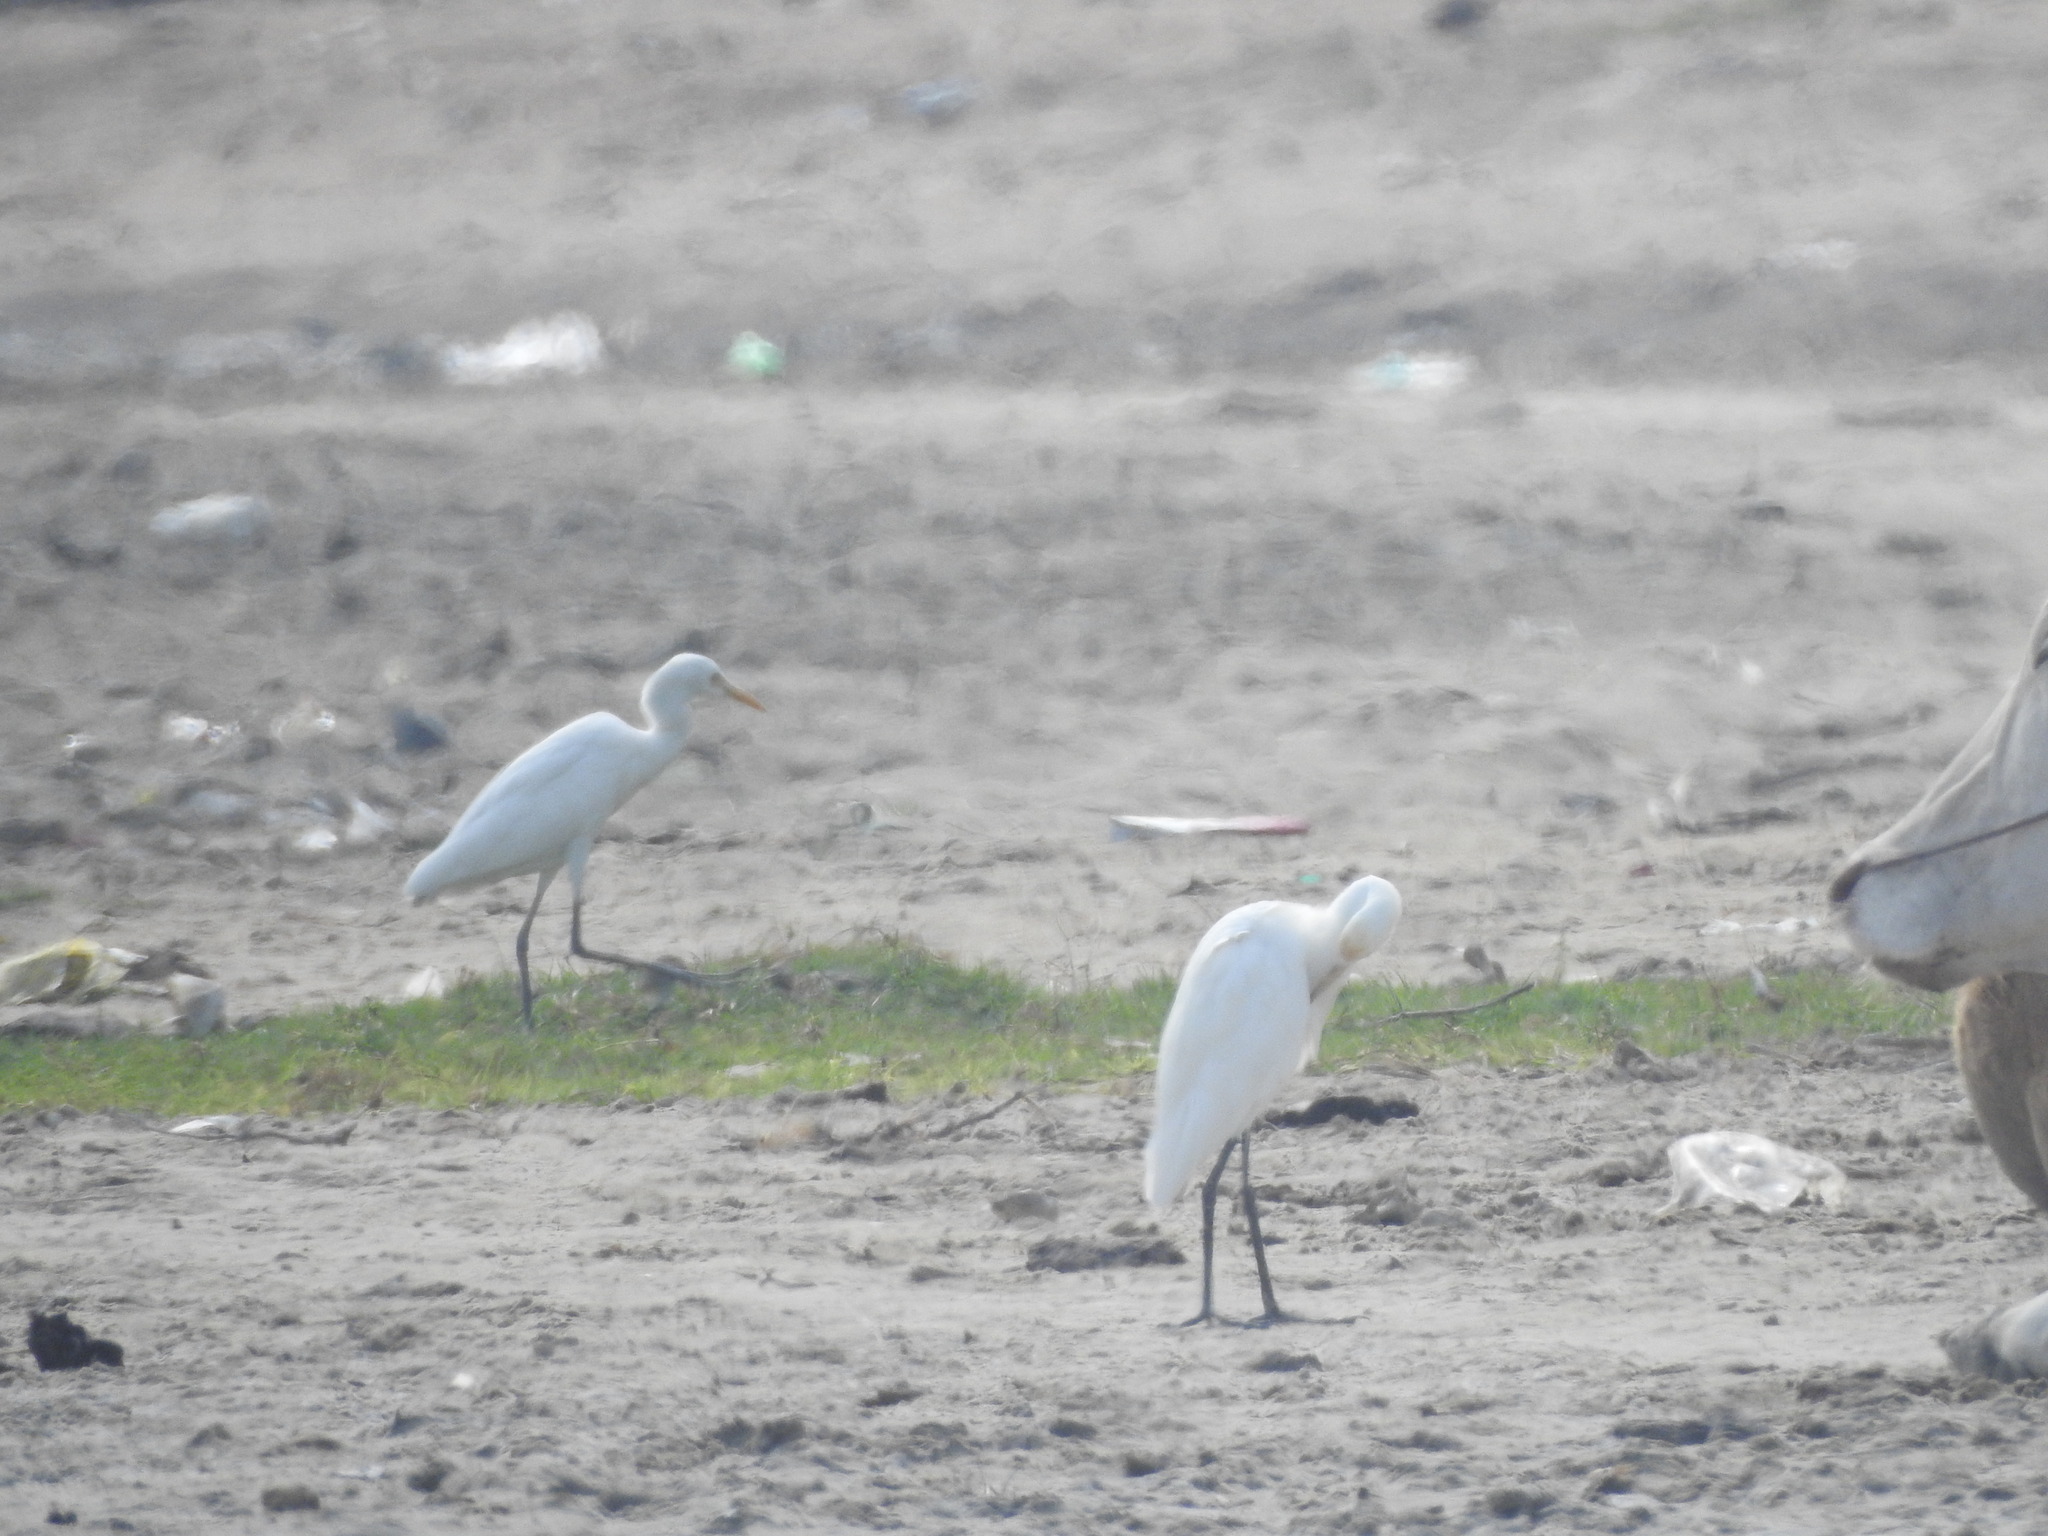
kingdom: Animalia
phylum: Chordata
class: Aves
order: Pelecaniformes
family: Ardeidae
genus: Bubulcus
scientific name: Bubulcus coromandus
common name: Eastern cattle egret
